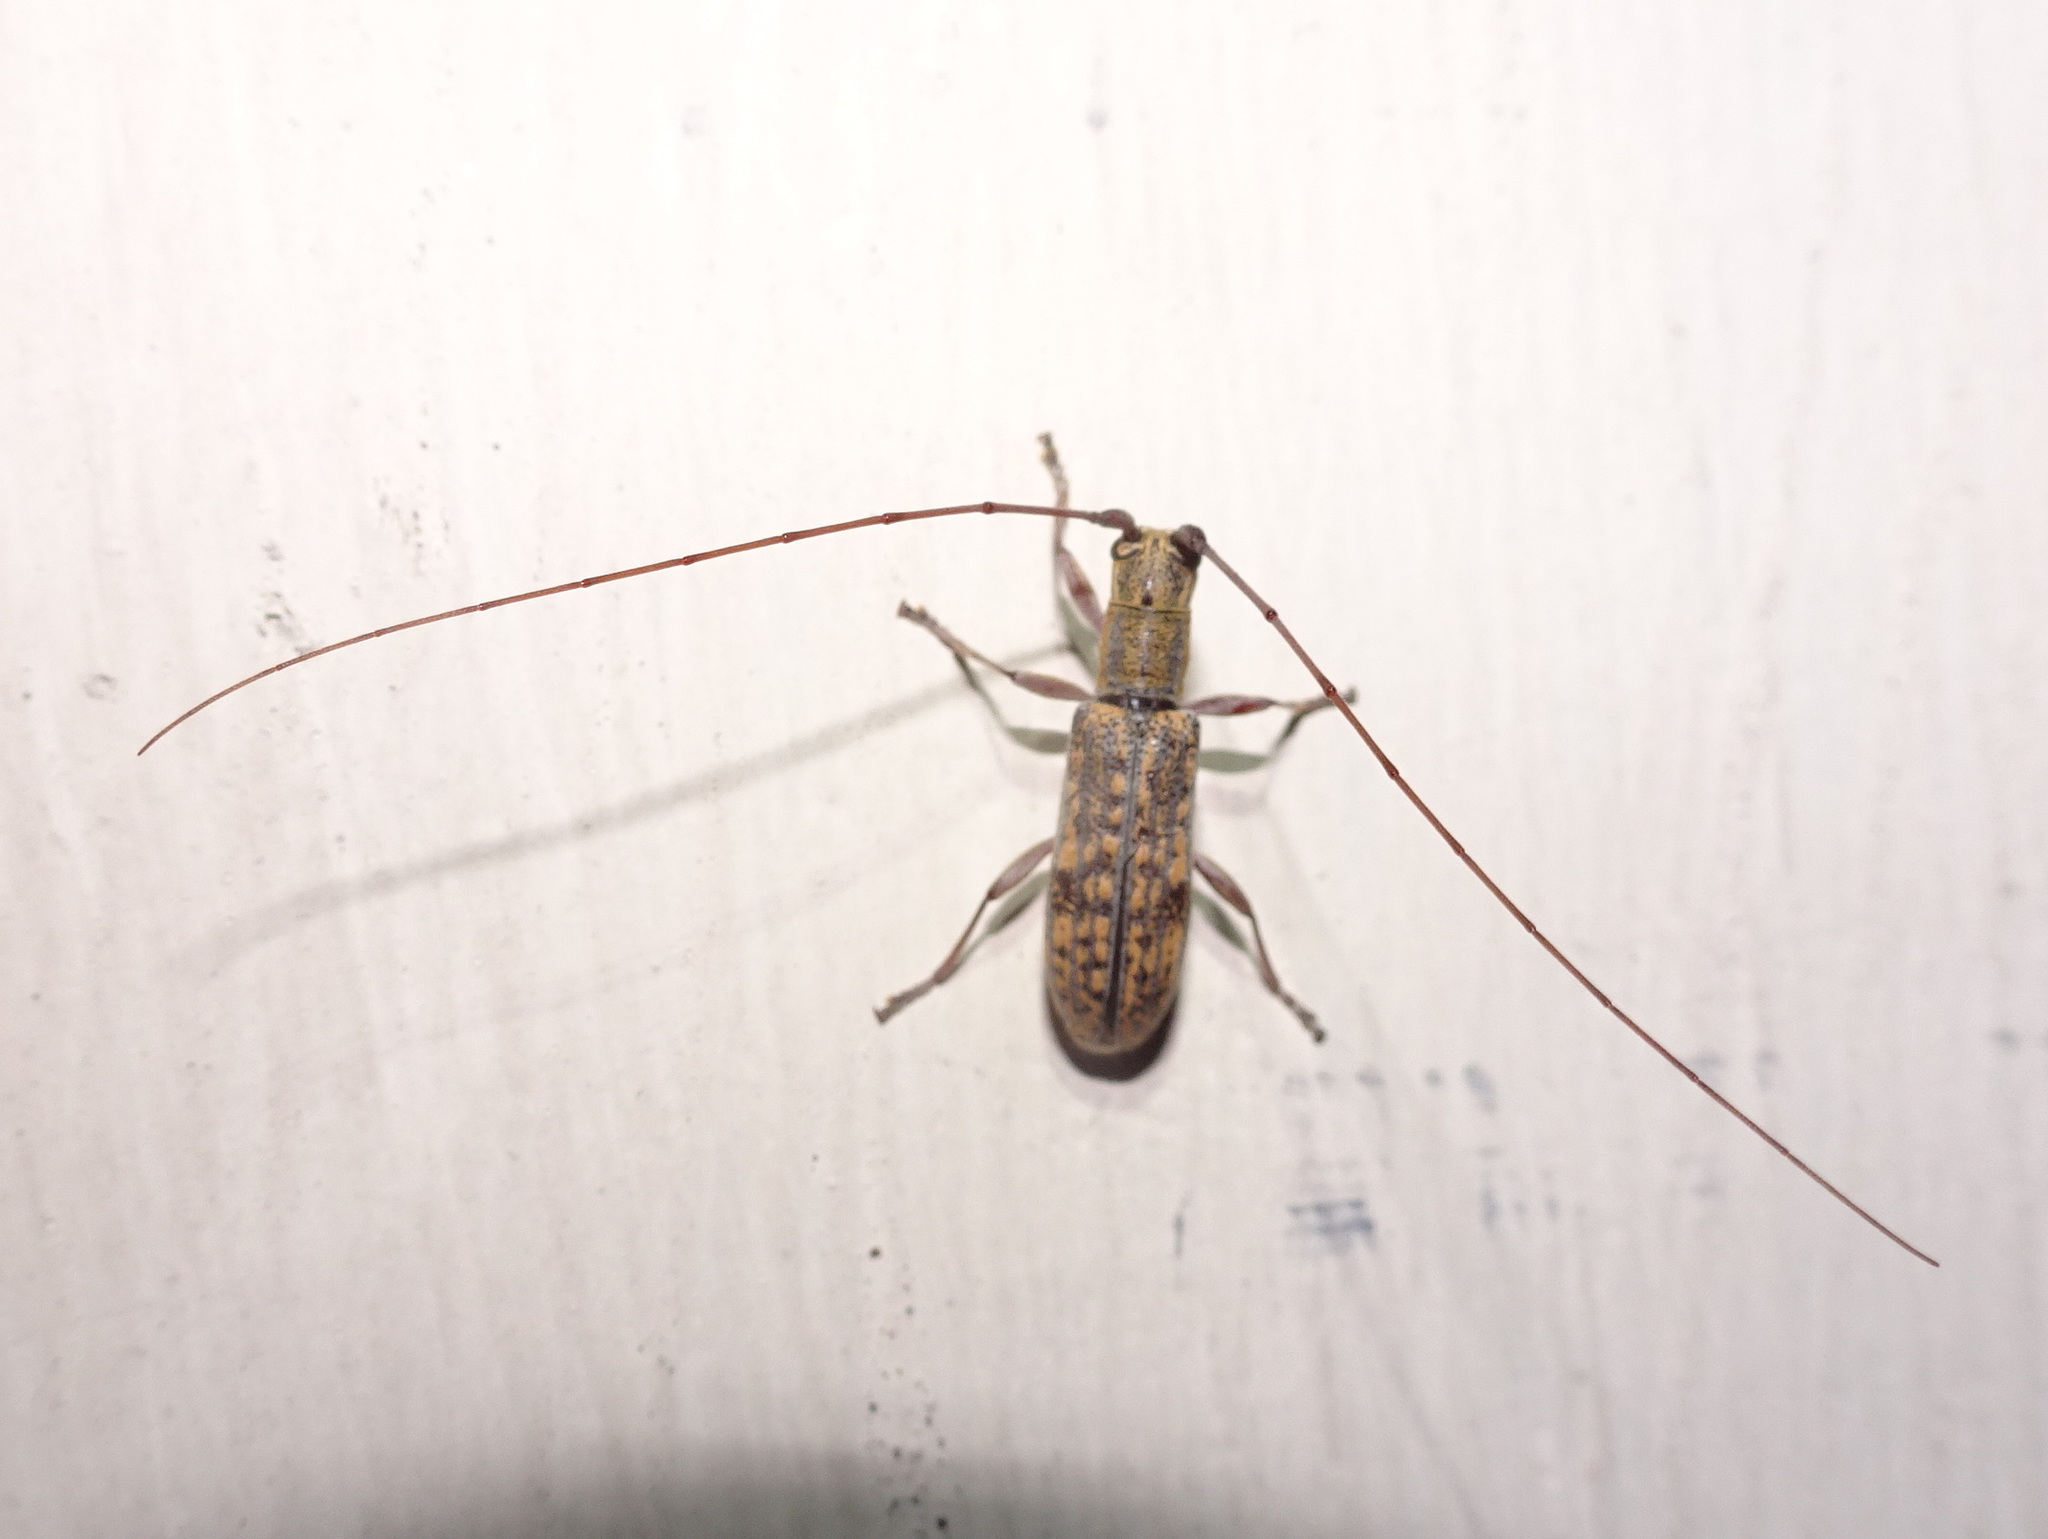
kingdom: Animalia
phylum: Arthropoda
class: Insecta
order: Coleoptera
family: Cerambycidae
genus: Dorcaschema
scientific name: Dorcaschema alternatum
